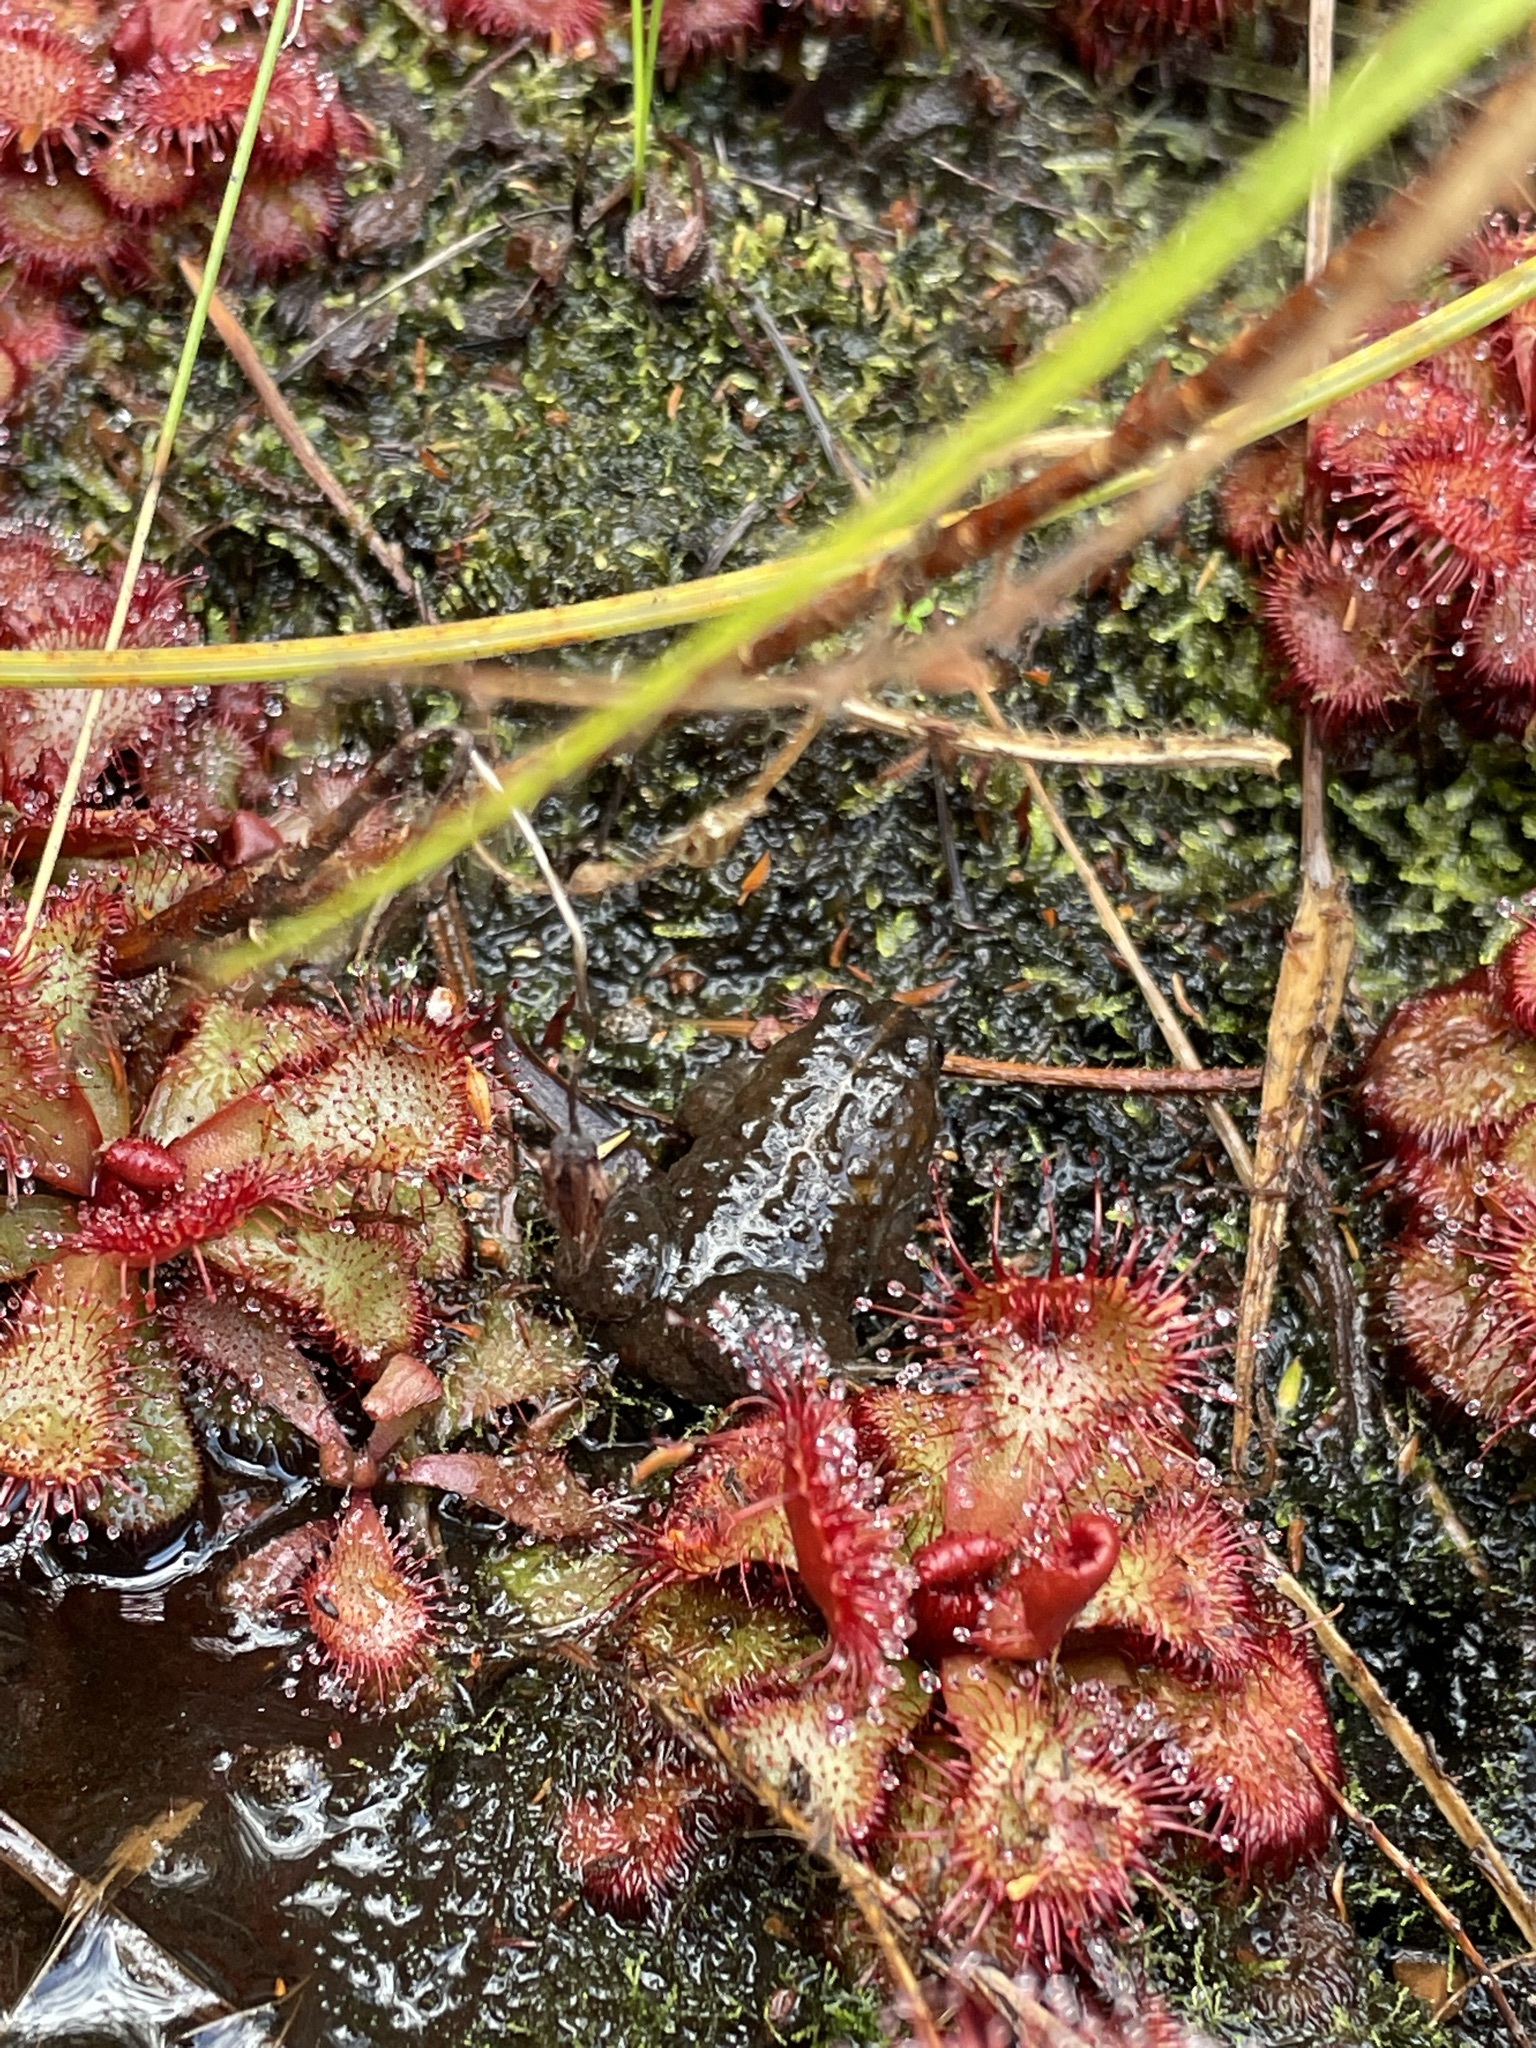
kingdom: Animalia
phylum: Chordata
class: Amphibia
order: Anura
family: Pyxicephalidae
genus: Poyntonia
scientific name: Poyntonia paludicola
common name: Montane marsh frog
